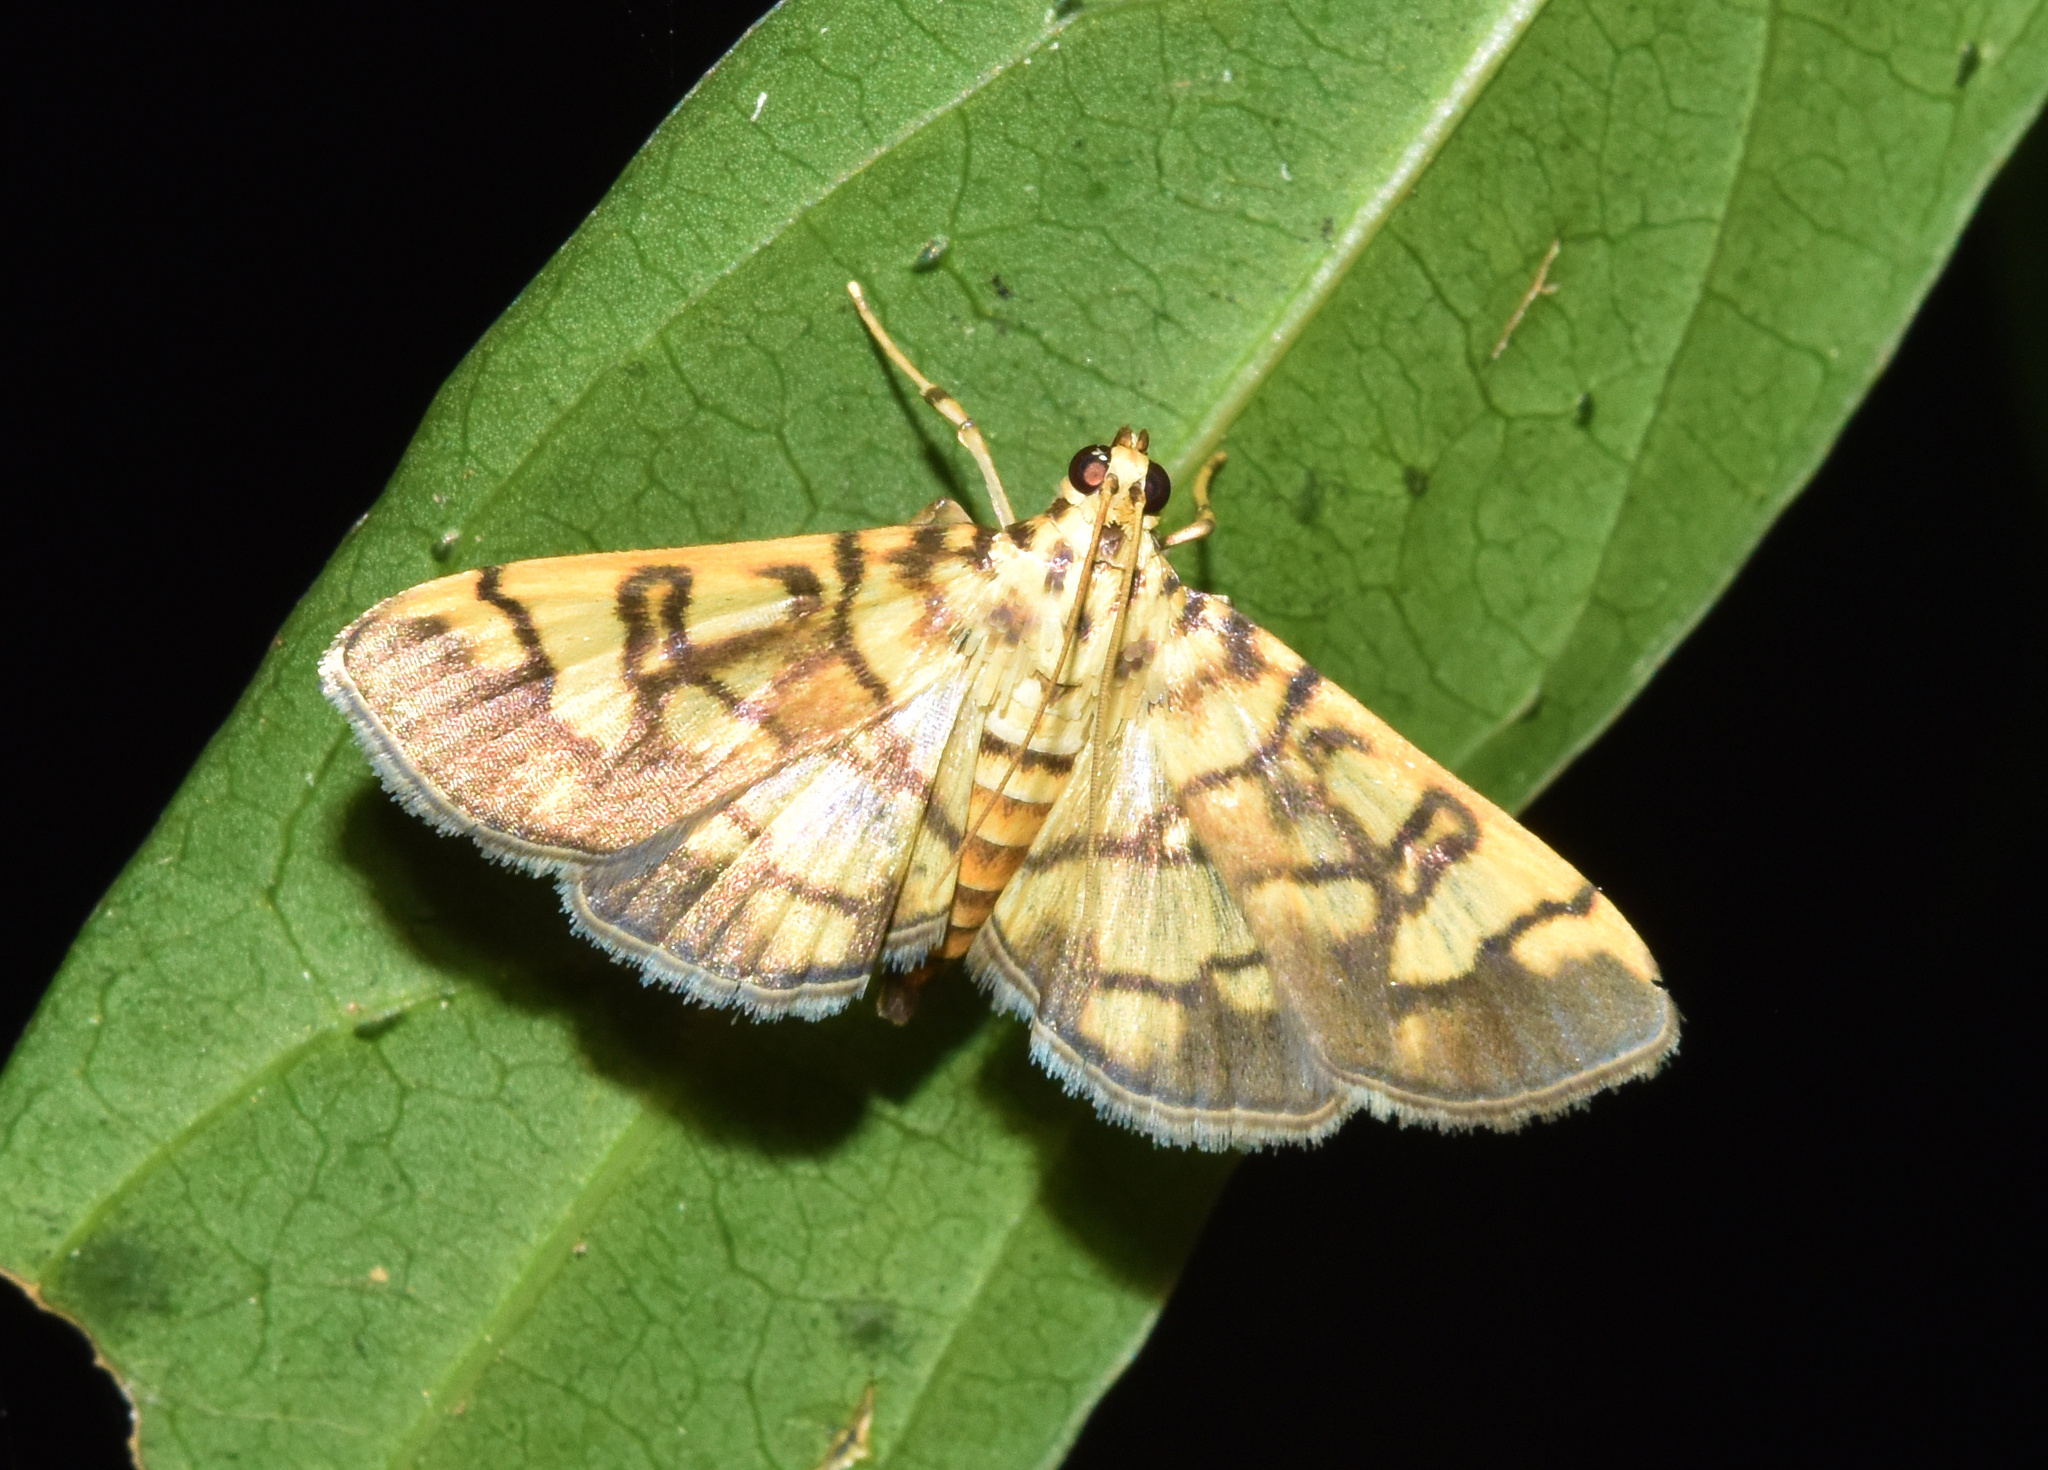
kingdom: Animalia
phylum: Arthropoda
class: Insecta
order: Lepidoptera
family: Crambidae
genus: Pardomima
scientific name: Pardomima callixantha
